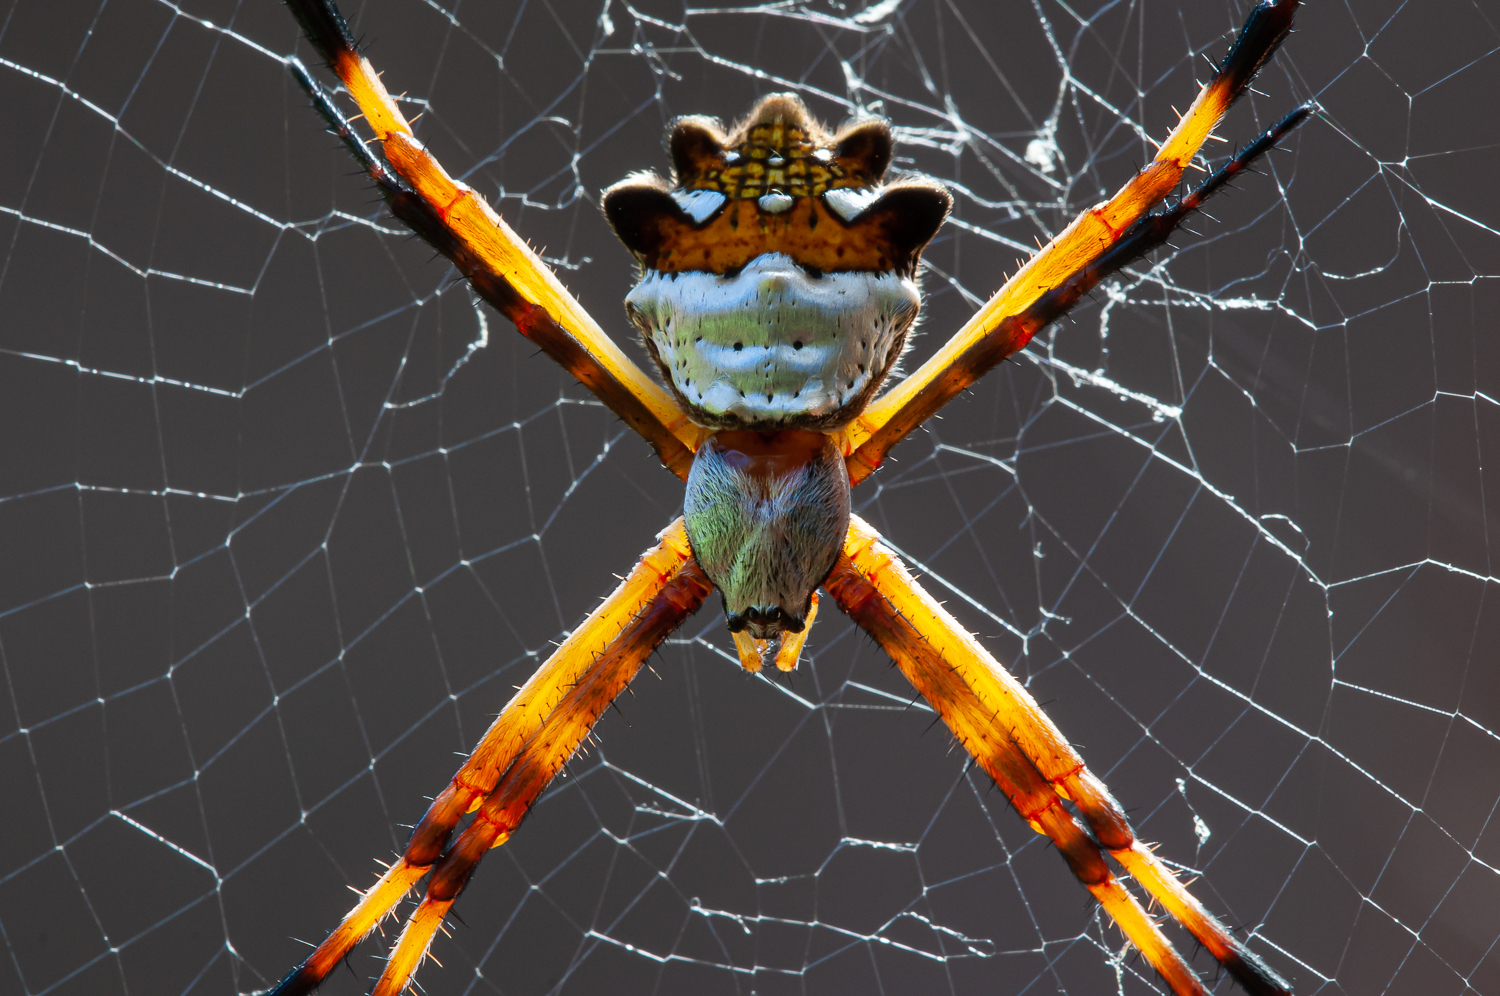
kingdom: Animalia
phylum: Arthropoda
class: Arachnida
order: Araneae
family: Araneidae
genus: Argiope
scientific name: Argiope argentata
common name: Orb weavers
